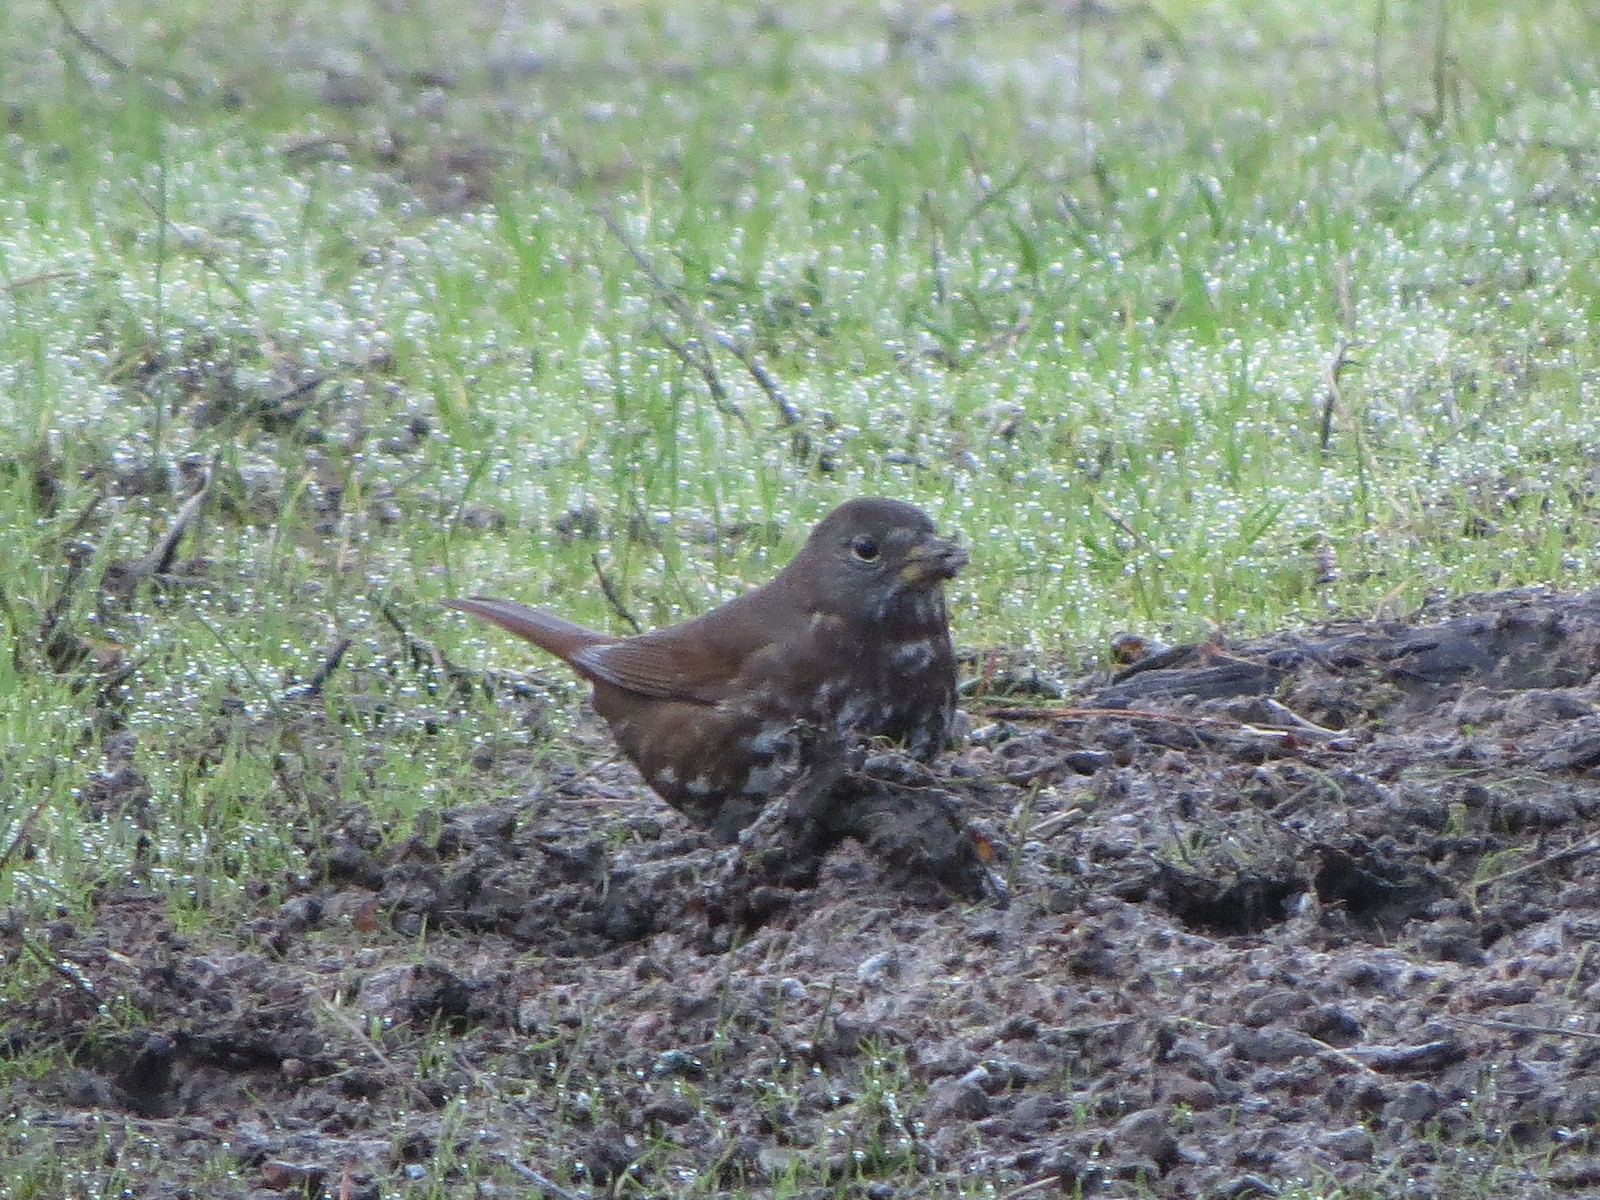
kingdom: Animalia
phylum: Chordata
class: Aves
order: Passeriformes
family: Passerellidae
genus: Passerella
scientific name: Passerella iliaca
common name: Fox sparrow
